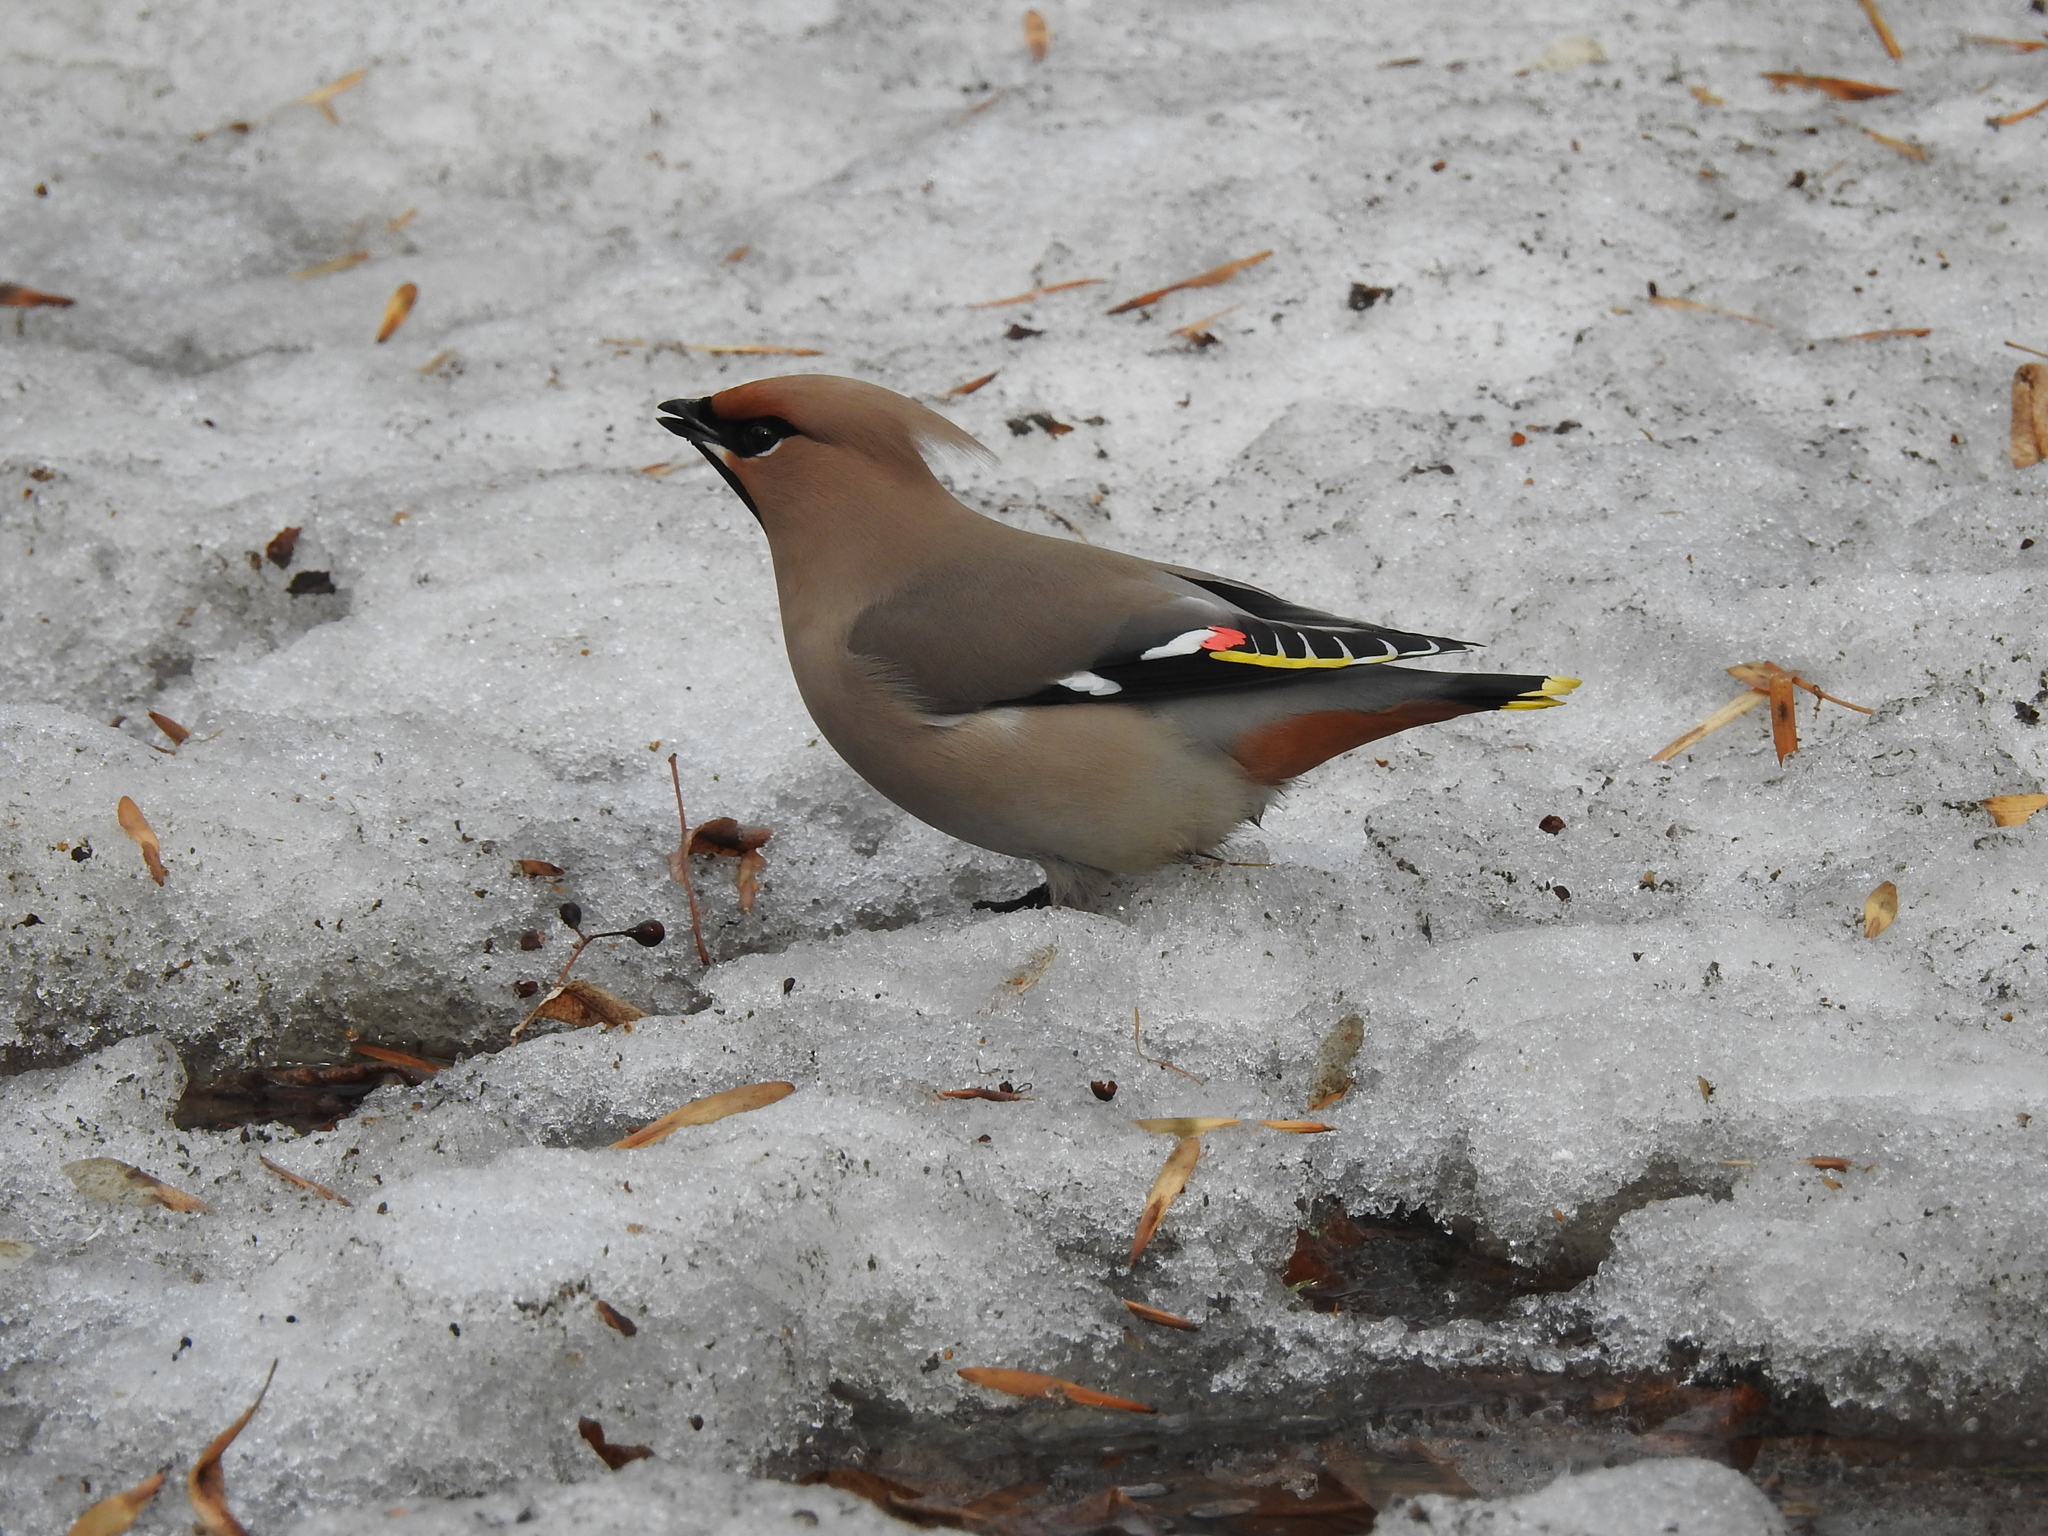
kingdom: Animalia
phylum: Chordata
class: Aves
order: Passeriformes
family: Bombycillidae
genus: Bombycilla
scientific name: Bombycilla garrulus
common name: Bohemian waxwing
